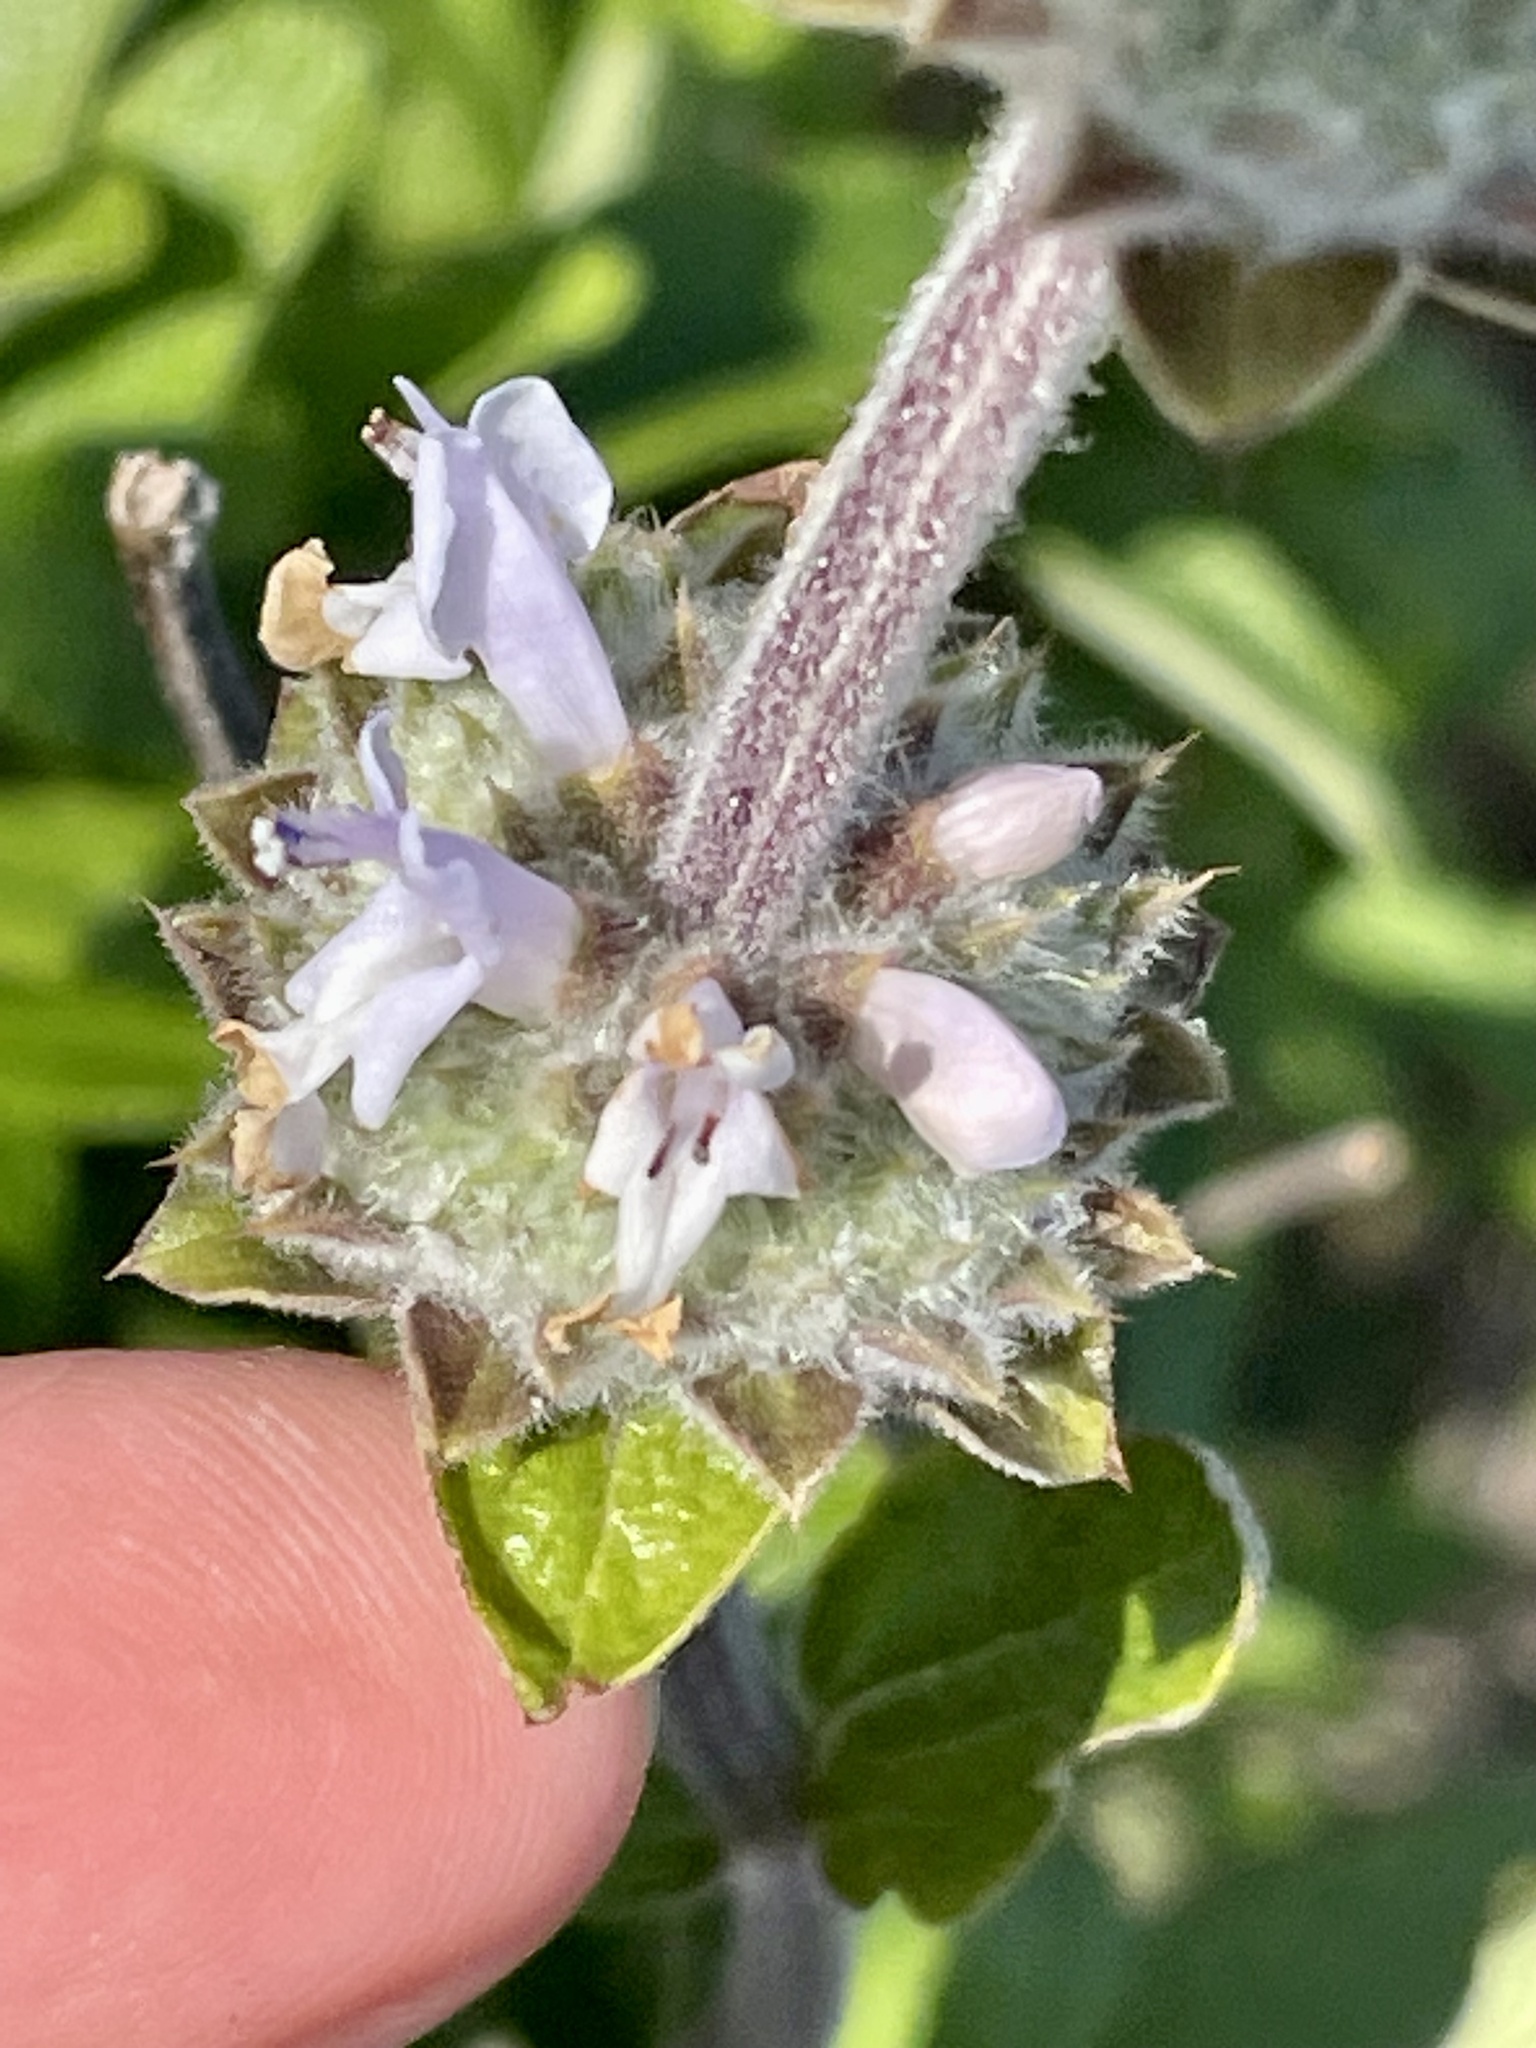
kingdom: Plantae
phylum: Tracheophyta
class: Magnoliopsida
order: Lamiales
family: Lamiaceae
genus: Salvia
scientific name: Salvia mellifera
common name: Black sage
